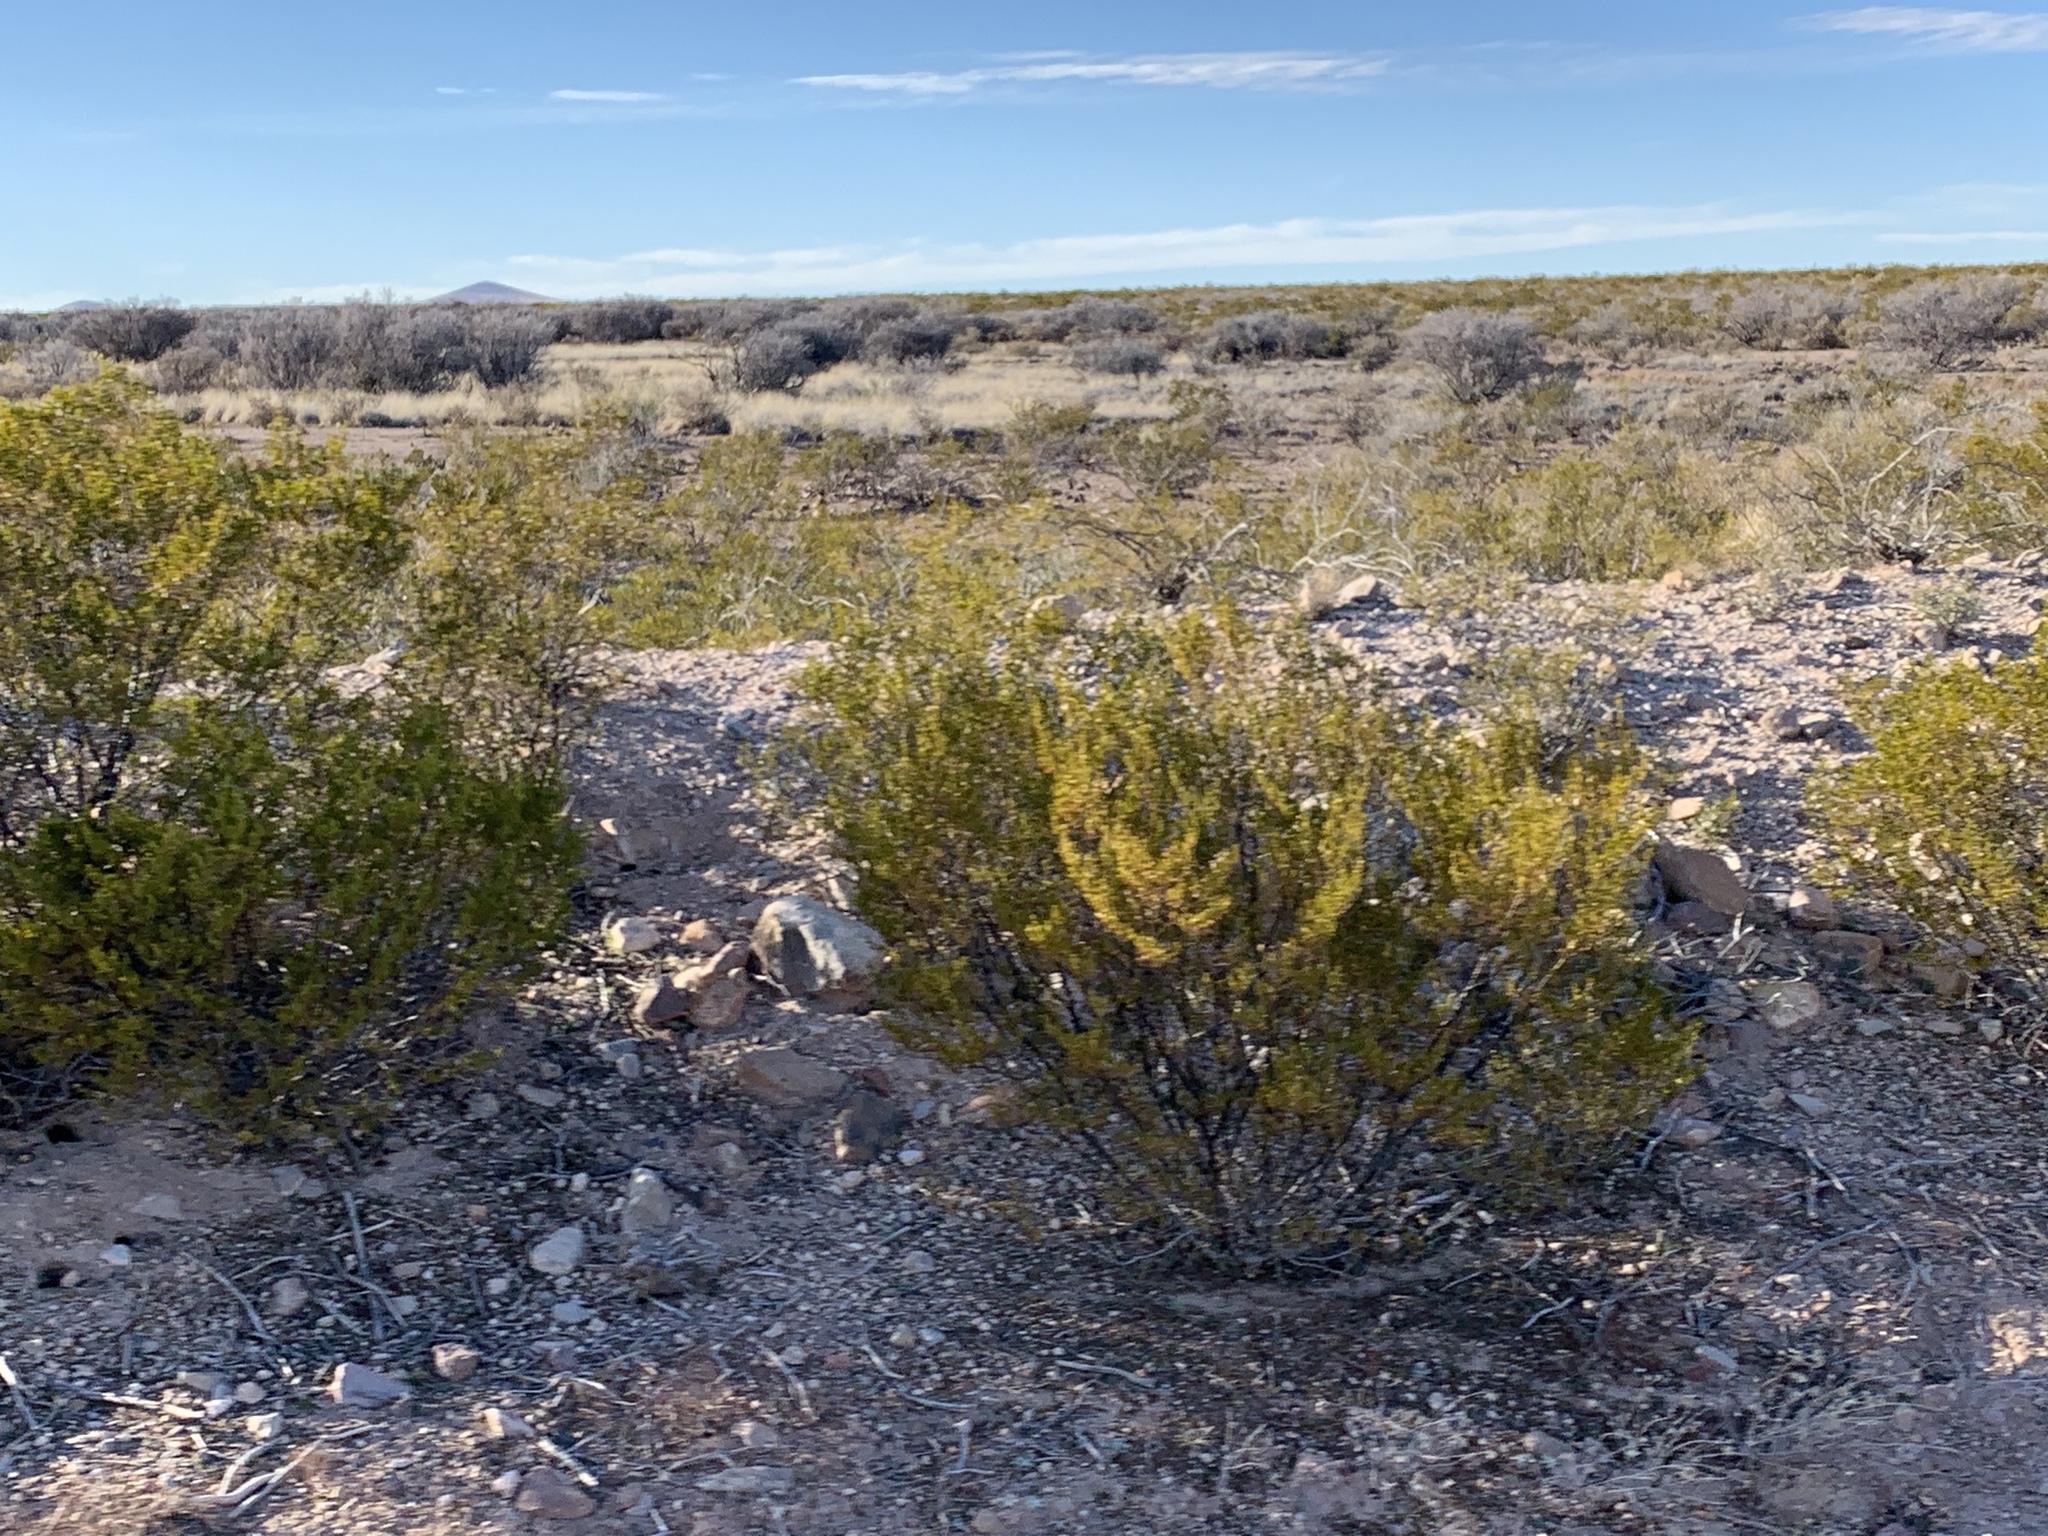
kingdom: Plantae
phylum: Tracheophyta
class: Magnoliopsida
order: Zygophyllales
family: Zygophyllaceae
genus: Larrea
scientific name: Larrea tridentata
